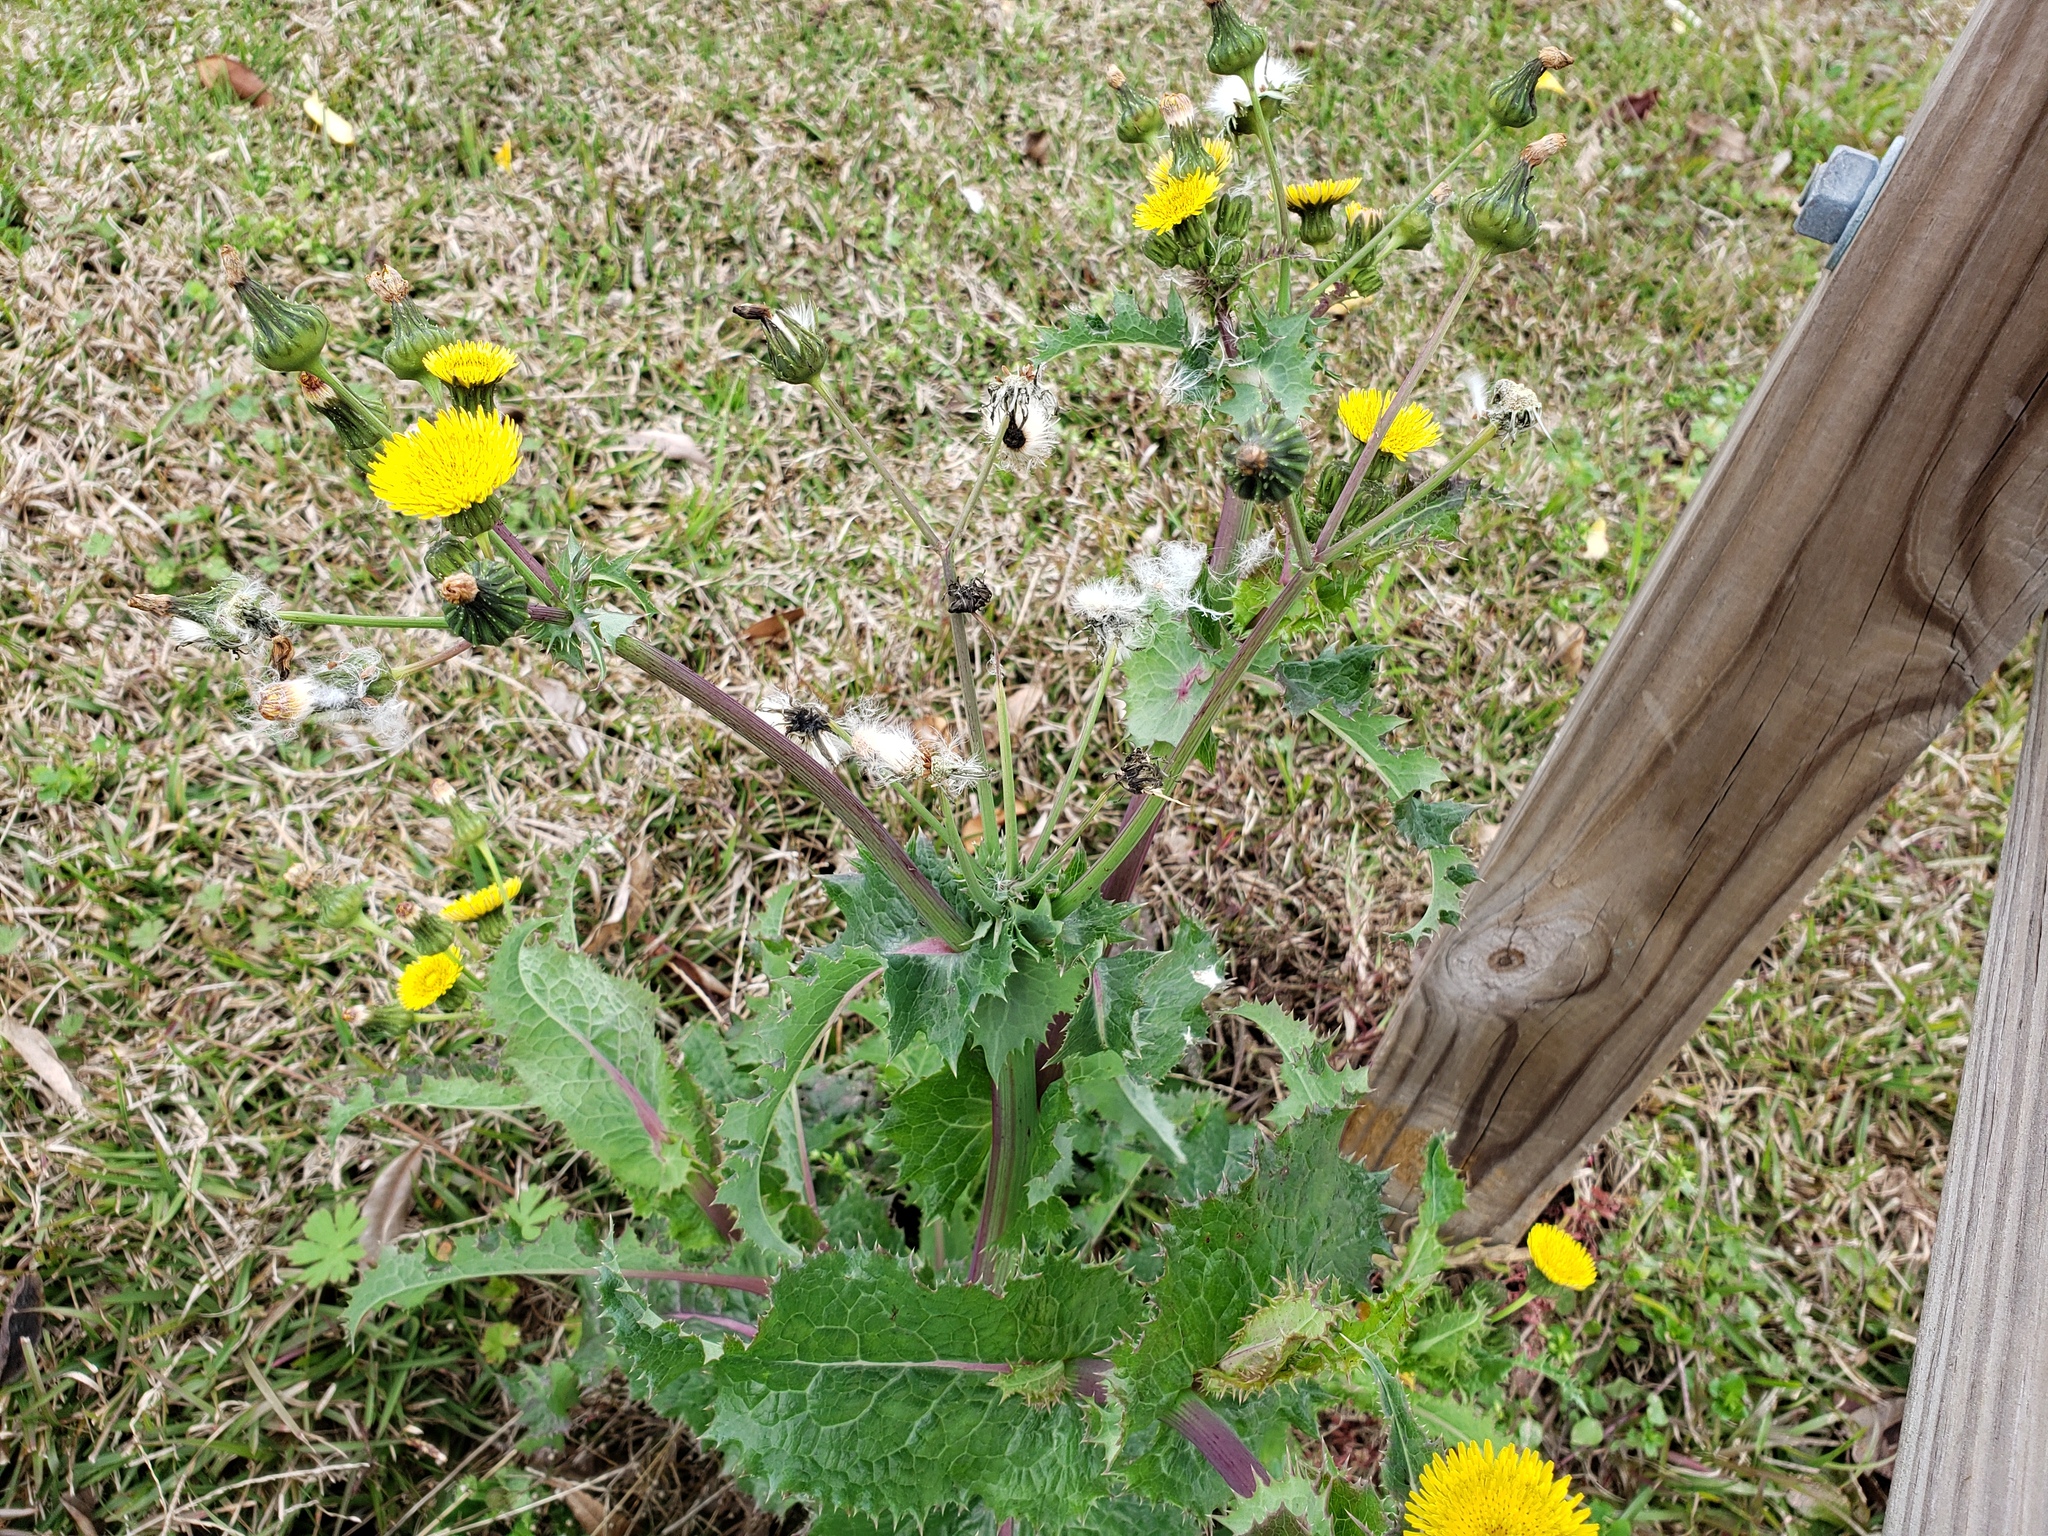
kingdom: Plantae
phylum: Tracheophyta
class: Magnoliopsida
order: Asterales
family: Asteraceae
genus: Sonchus
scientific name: Sonchus asper
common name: Prickly sow-thistle
